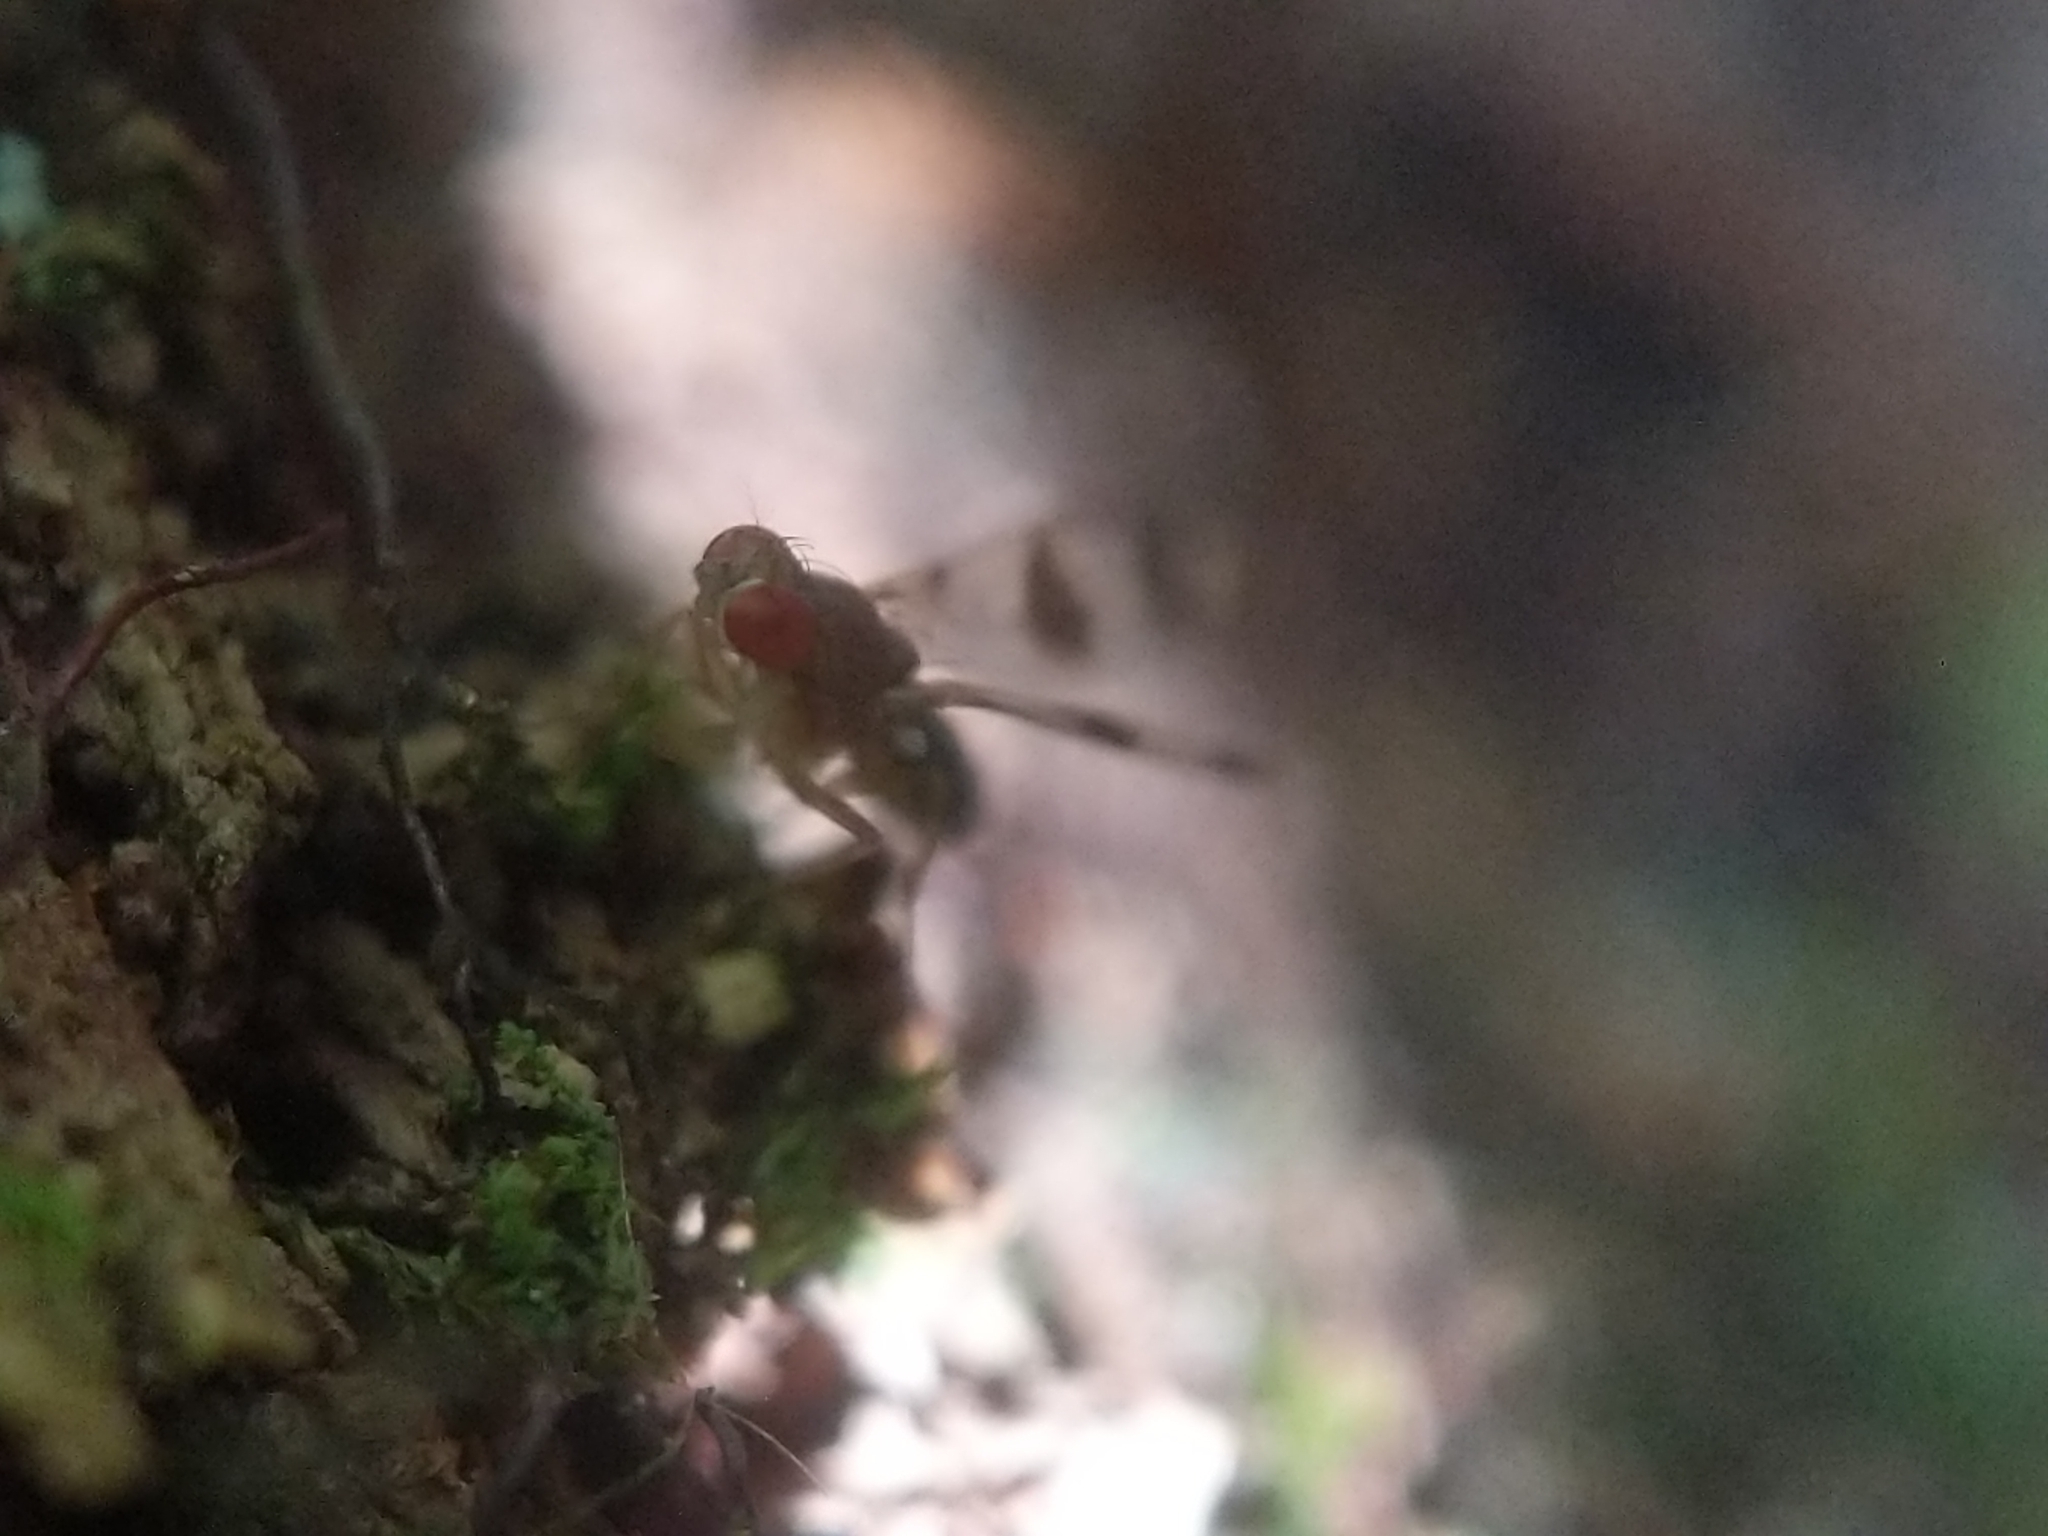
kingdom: Animalia
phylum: Arthropoda
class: Insecta
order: Diptera
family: Drosophilidae
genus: Chymomyza
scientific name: Chymomyza amoena
